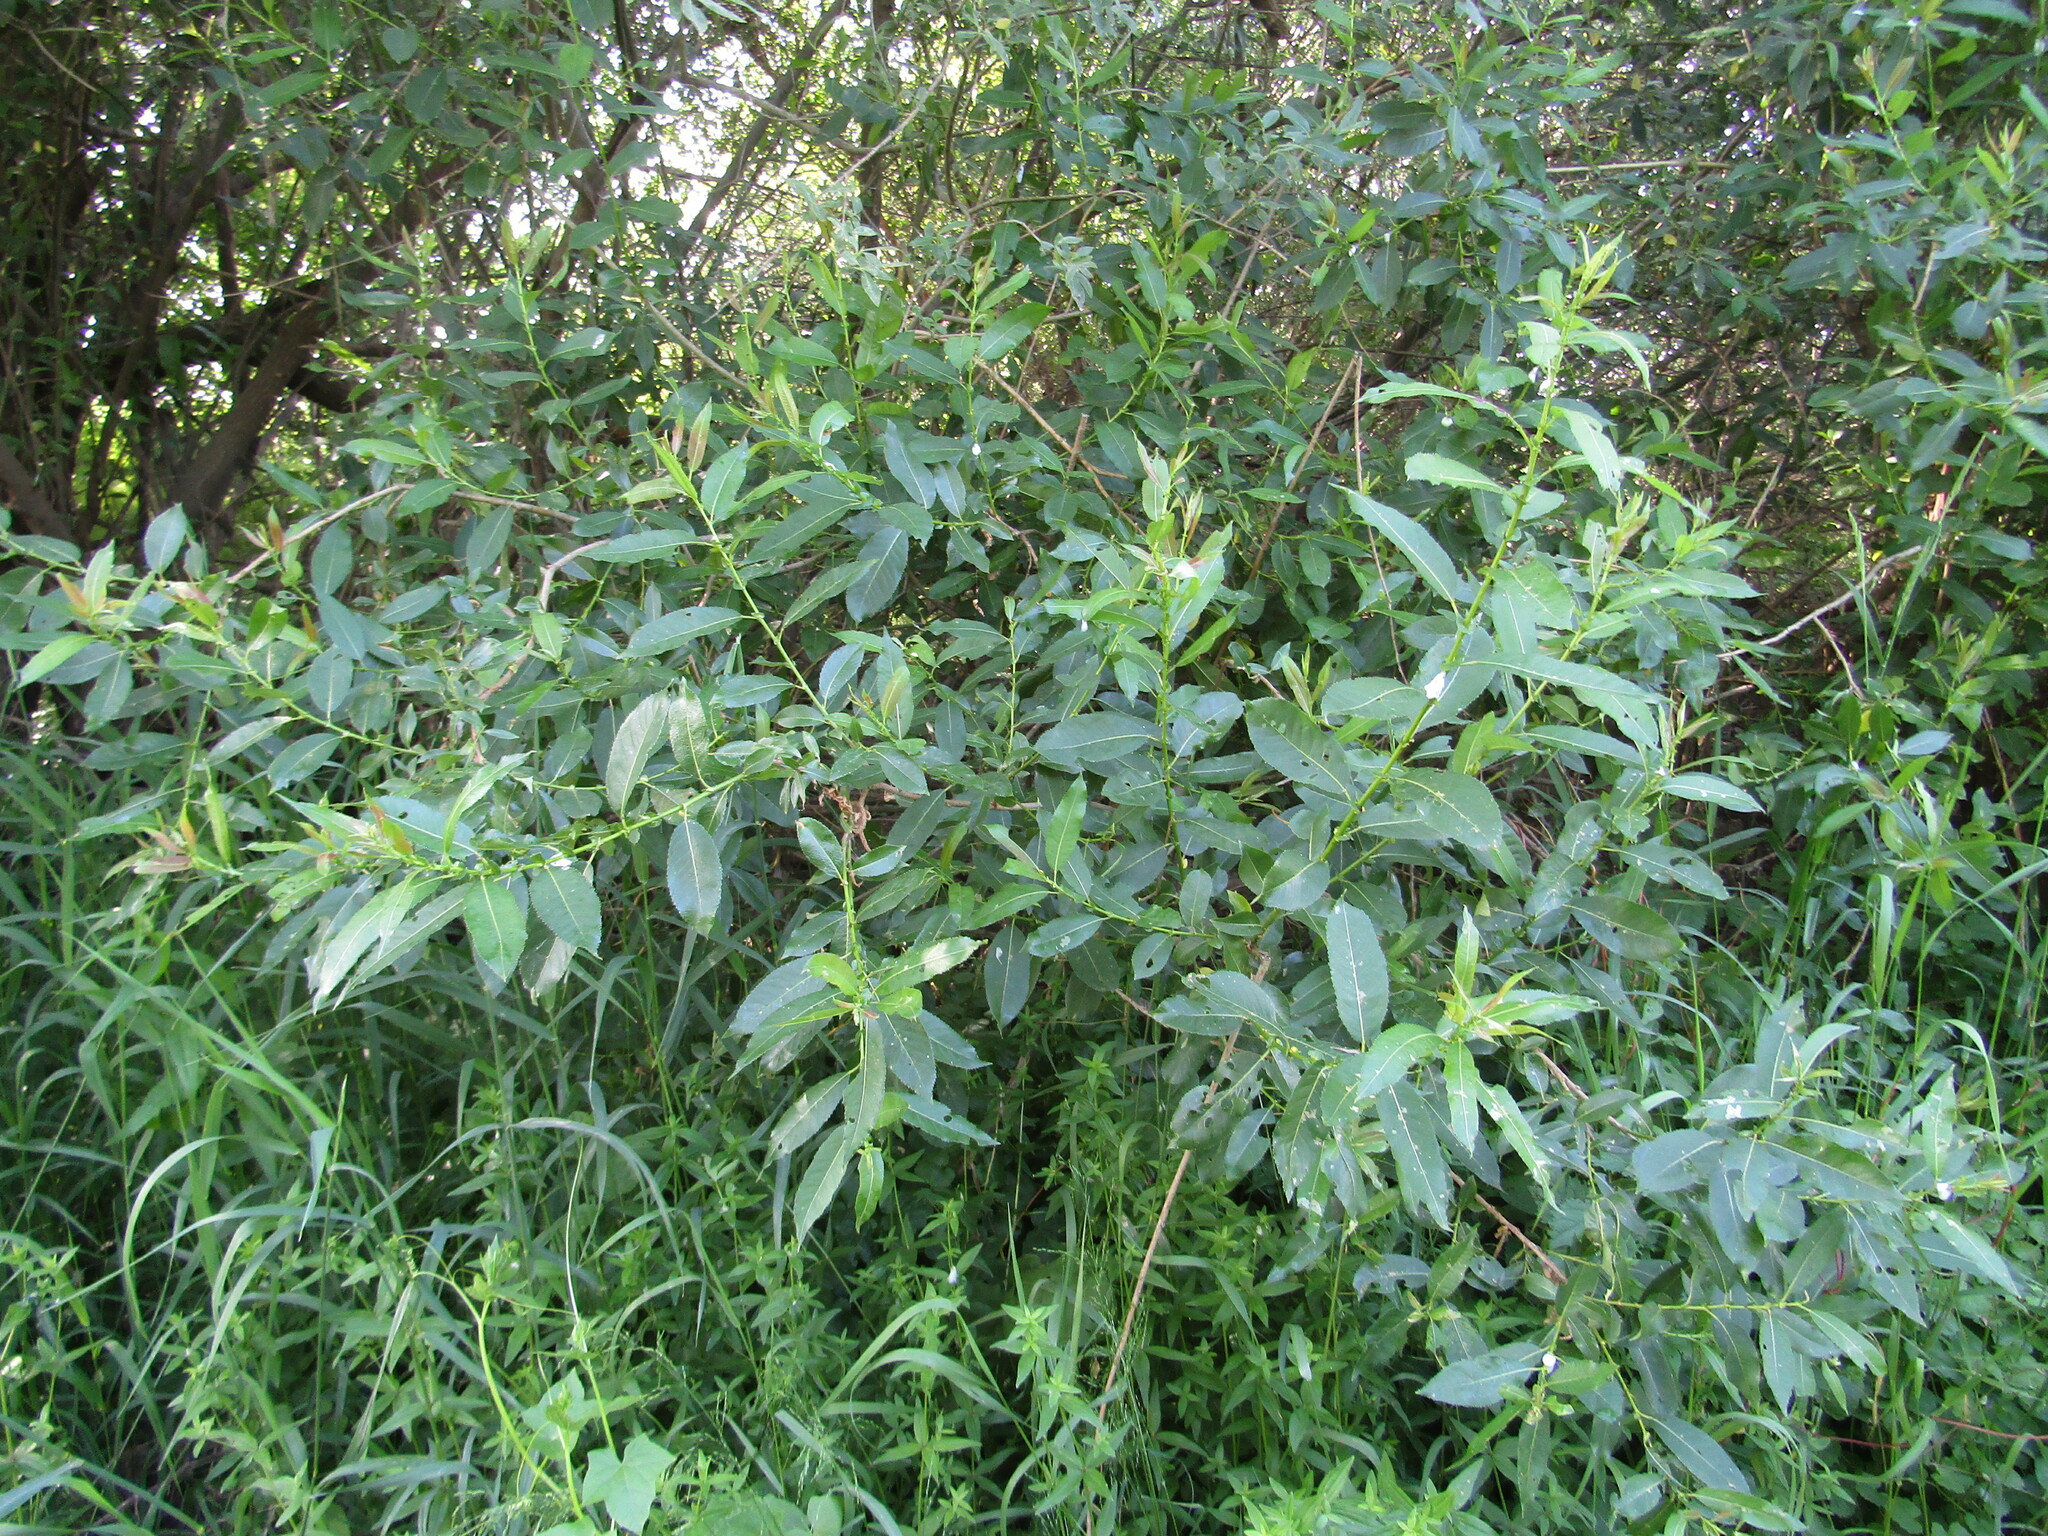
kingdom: Plantae
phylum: Tracheophyta
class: Magnoliopsida
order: Malpighiales
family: Salicaceae
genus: Salix
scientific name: Salix triandra
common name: Almond willow
